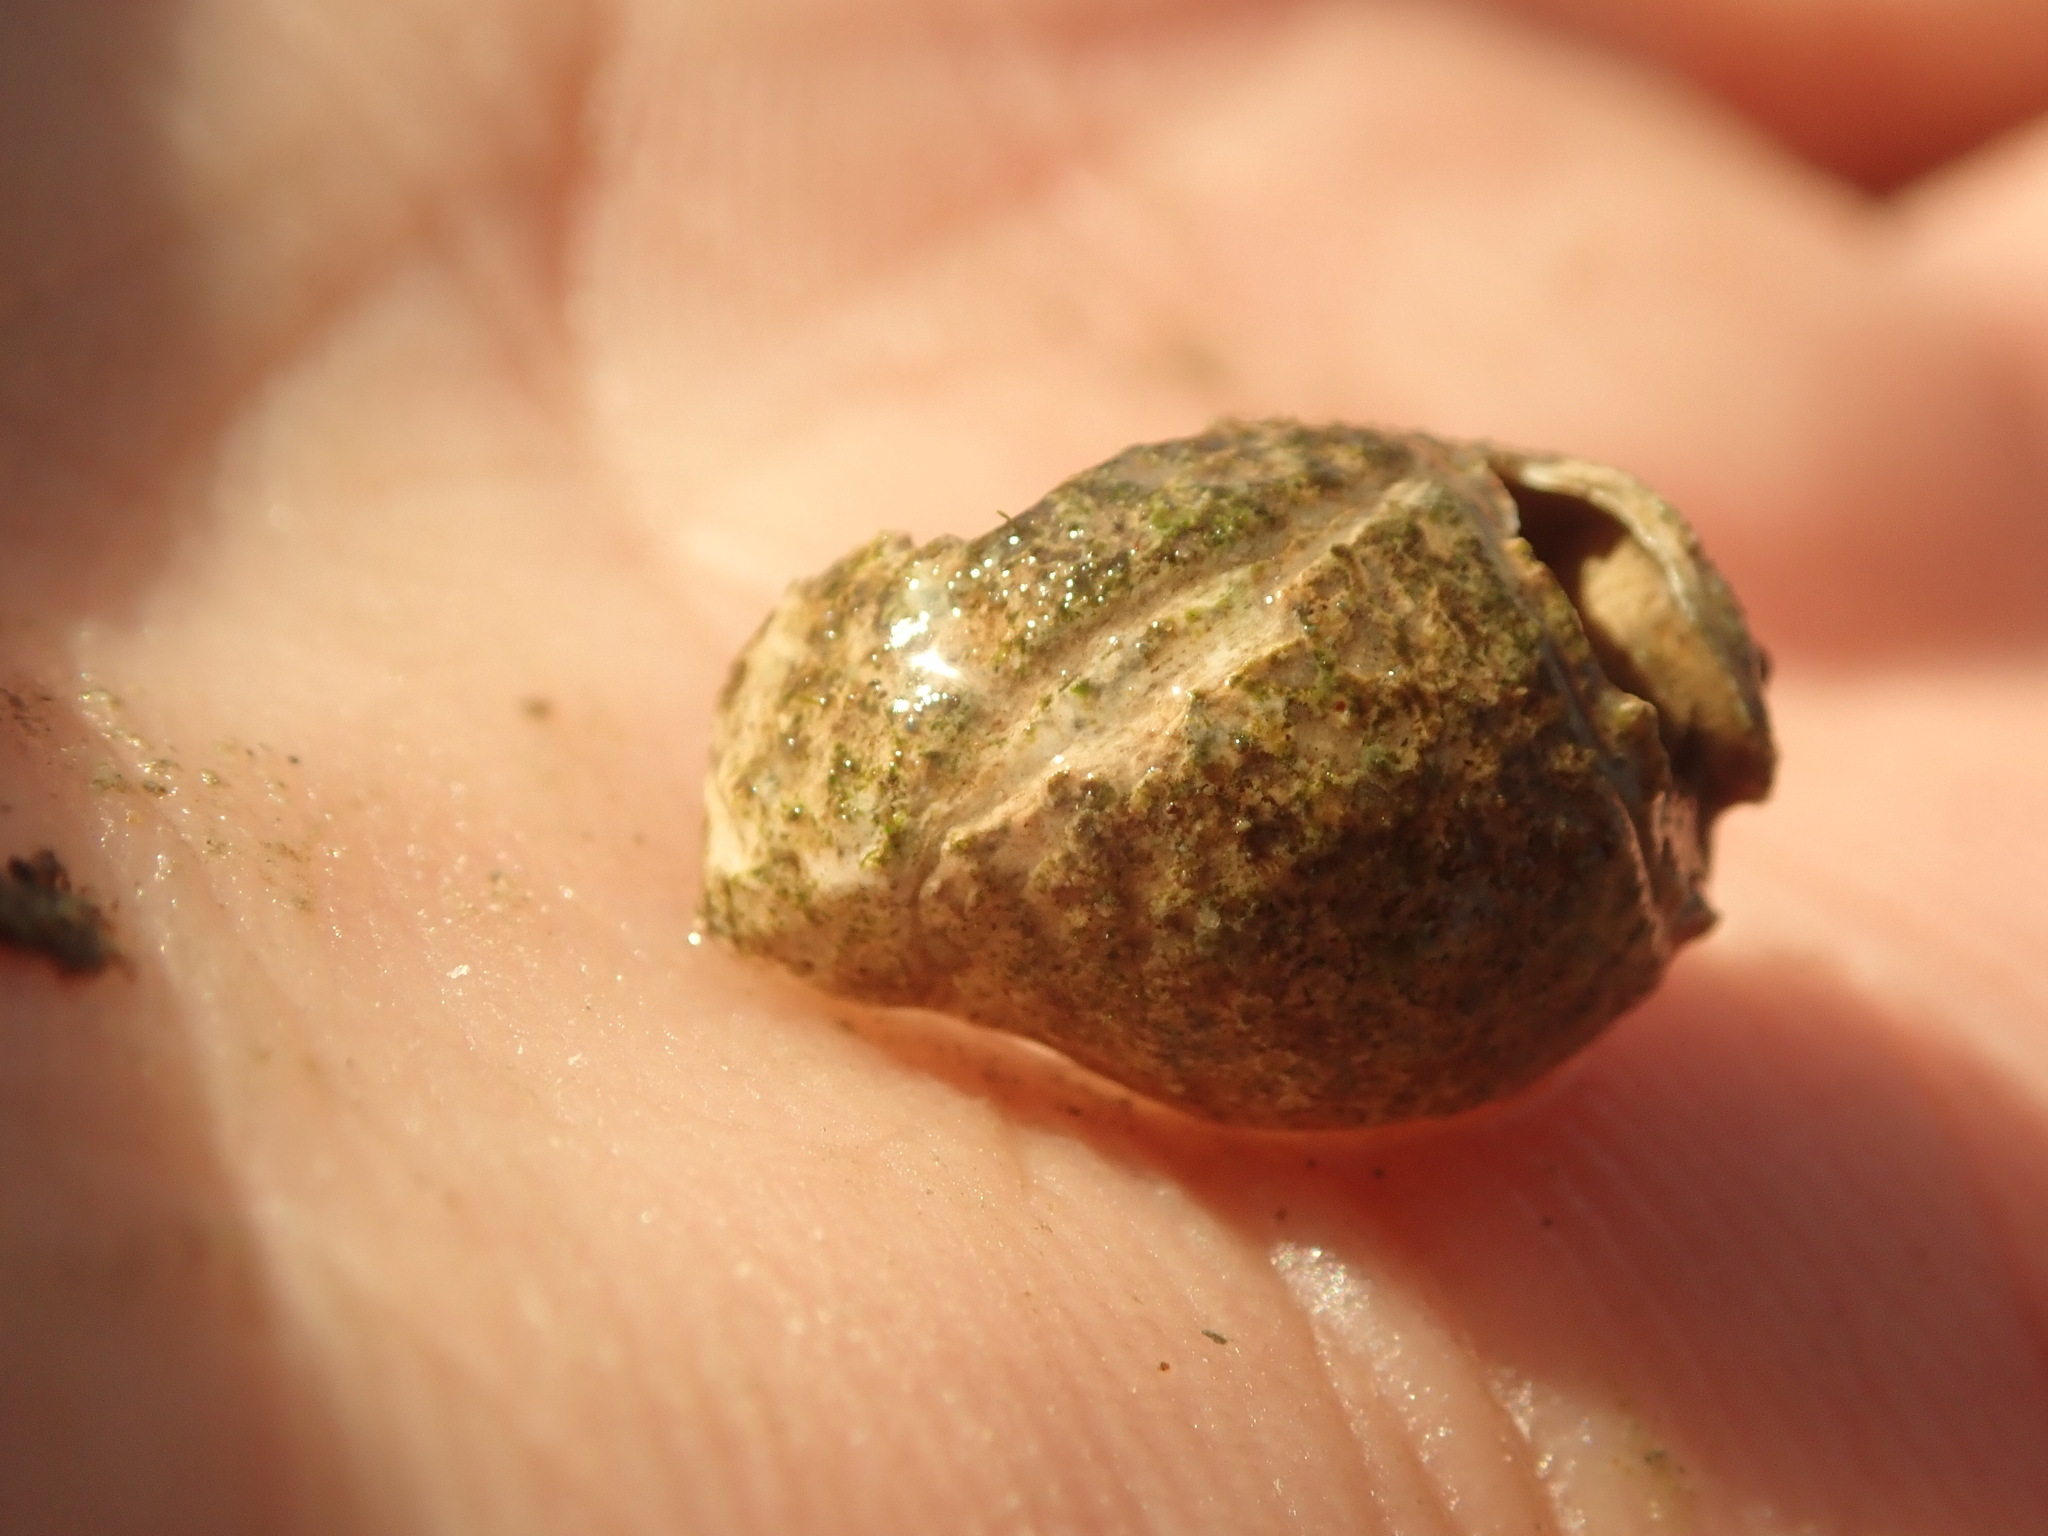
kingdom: Animalia
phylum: Mollusca
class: Gastropoda
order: Neogastropoda
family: Nassariidae
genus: Ilyanassa
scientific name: Ilyanassa obsoleta
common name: Eastern mudsnail
